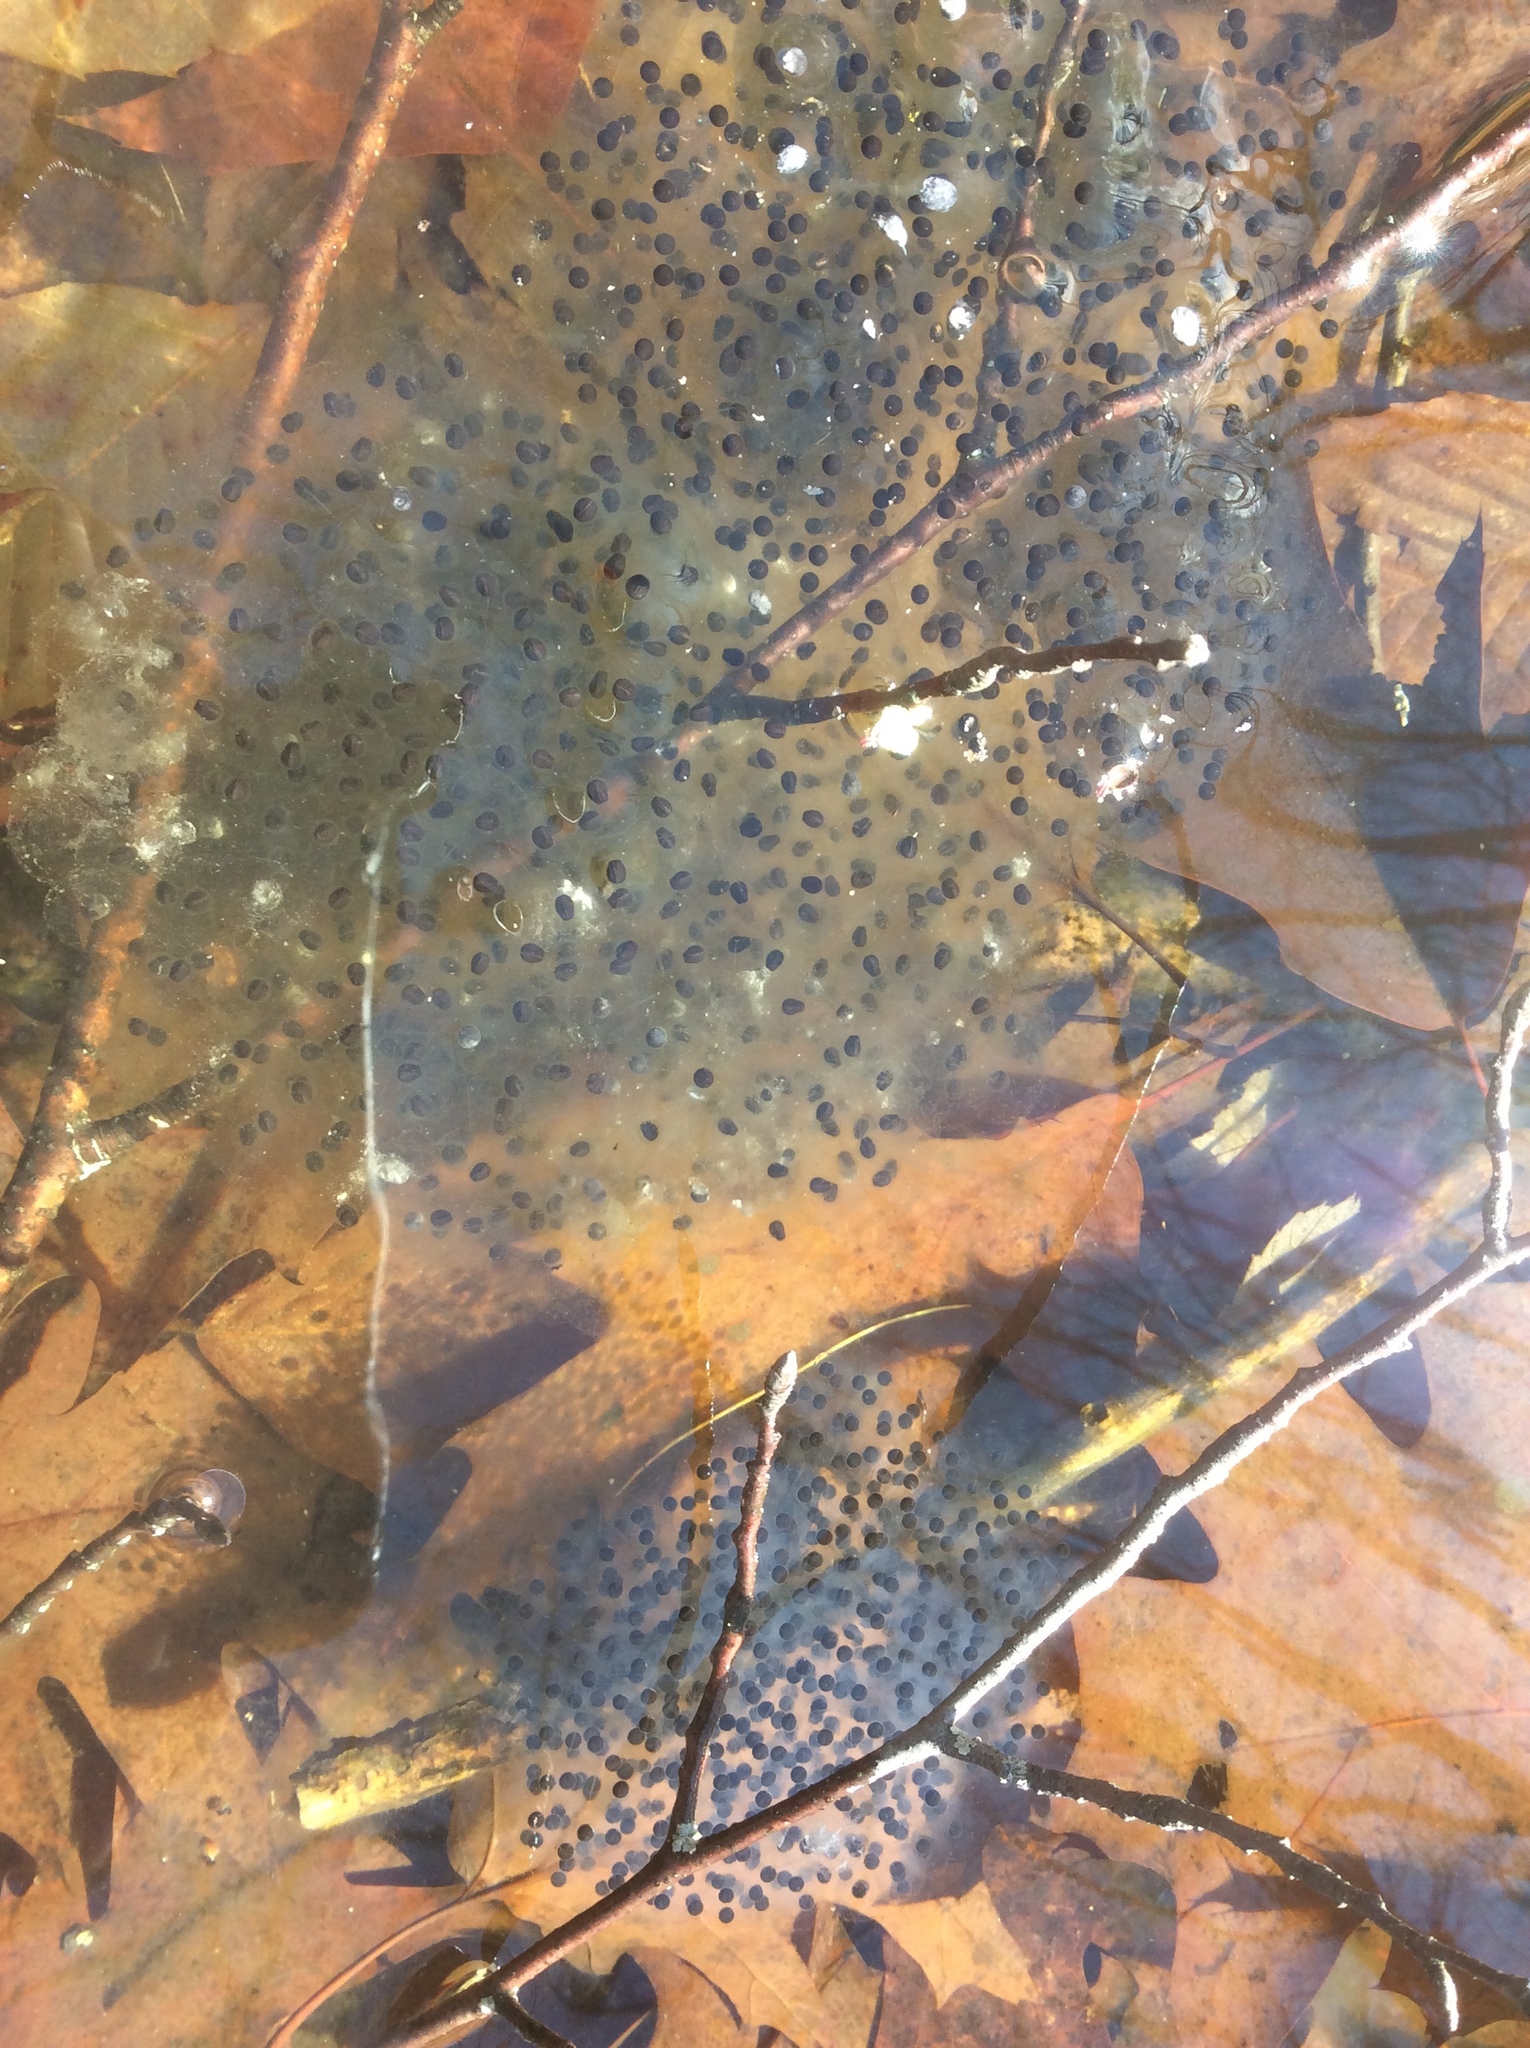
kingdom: Animalia
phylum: Chordata
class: Amphibia
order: Anura
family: Ranidae
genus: Lithobates
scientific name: Lithobates sylvaticus
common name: Wood frog
